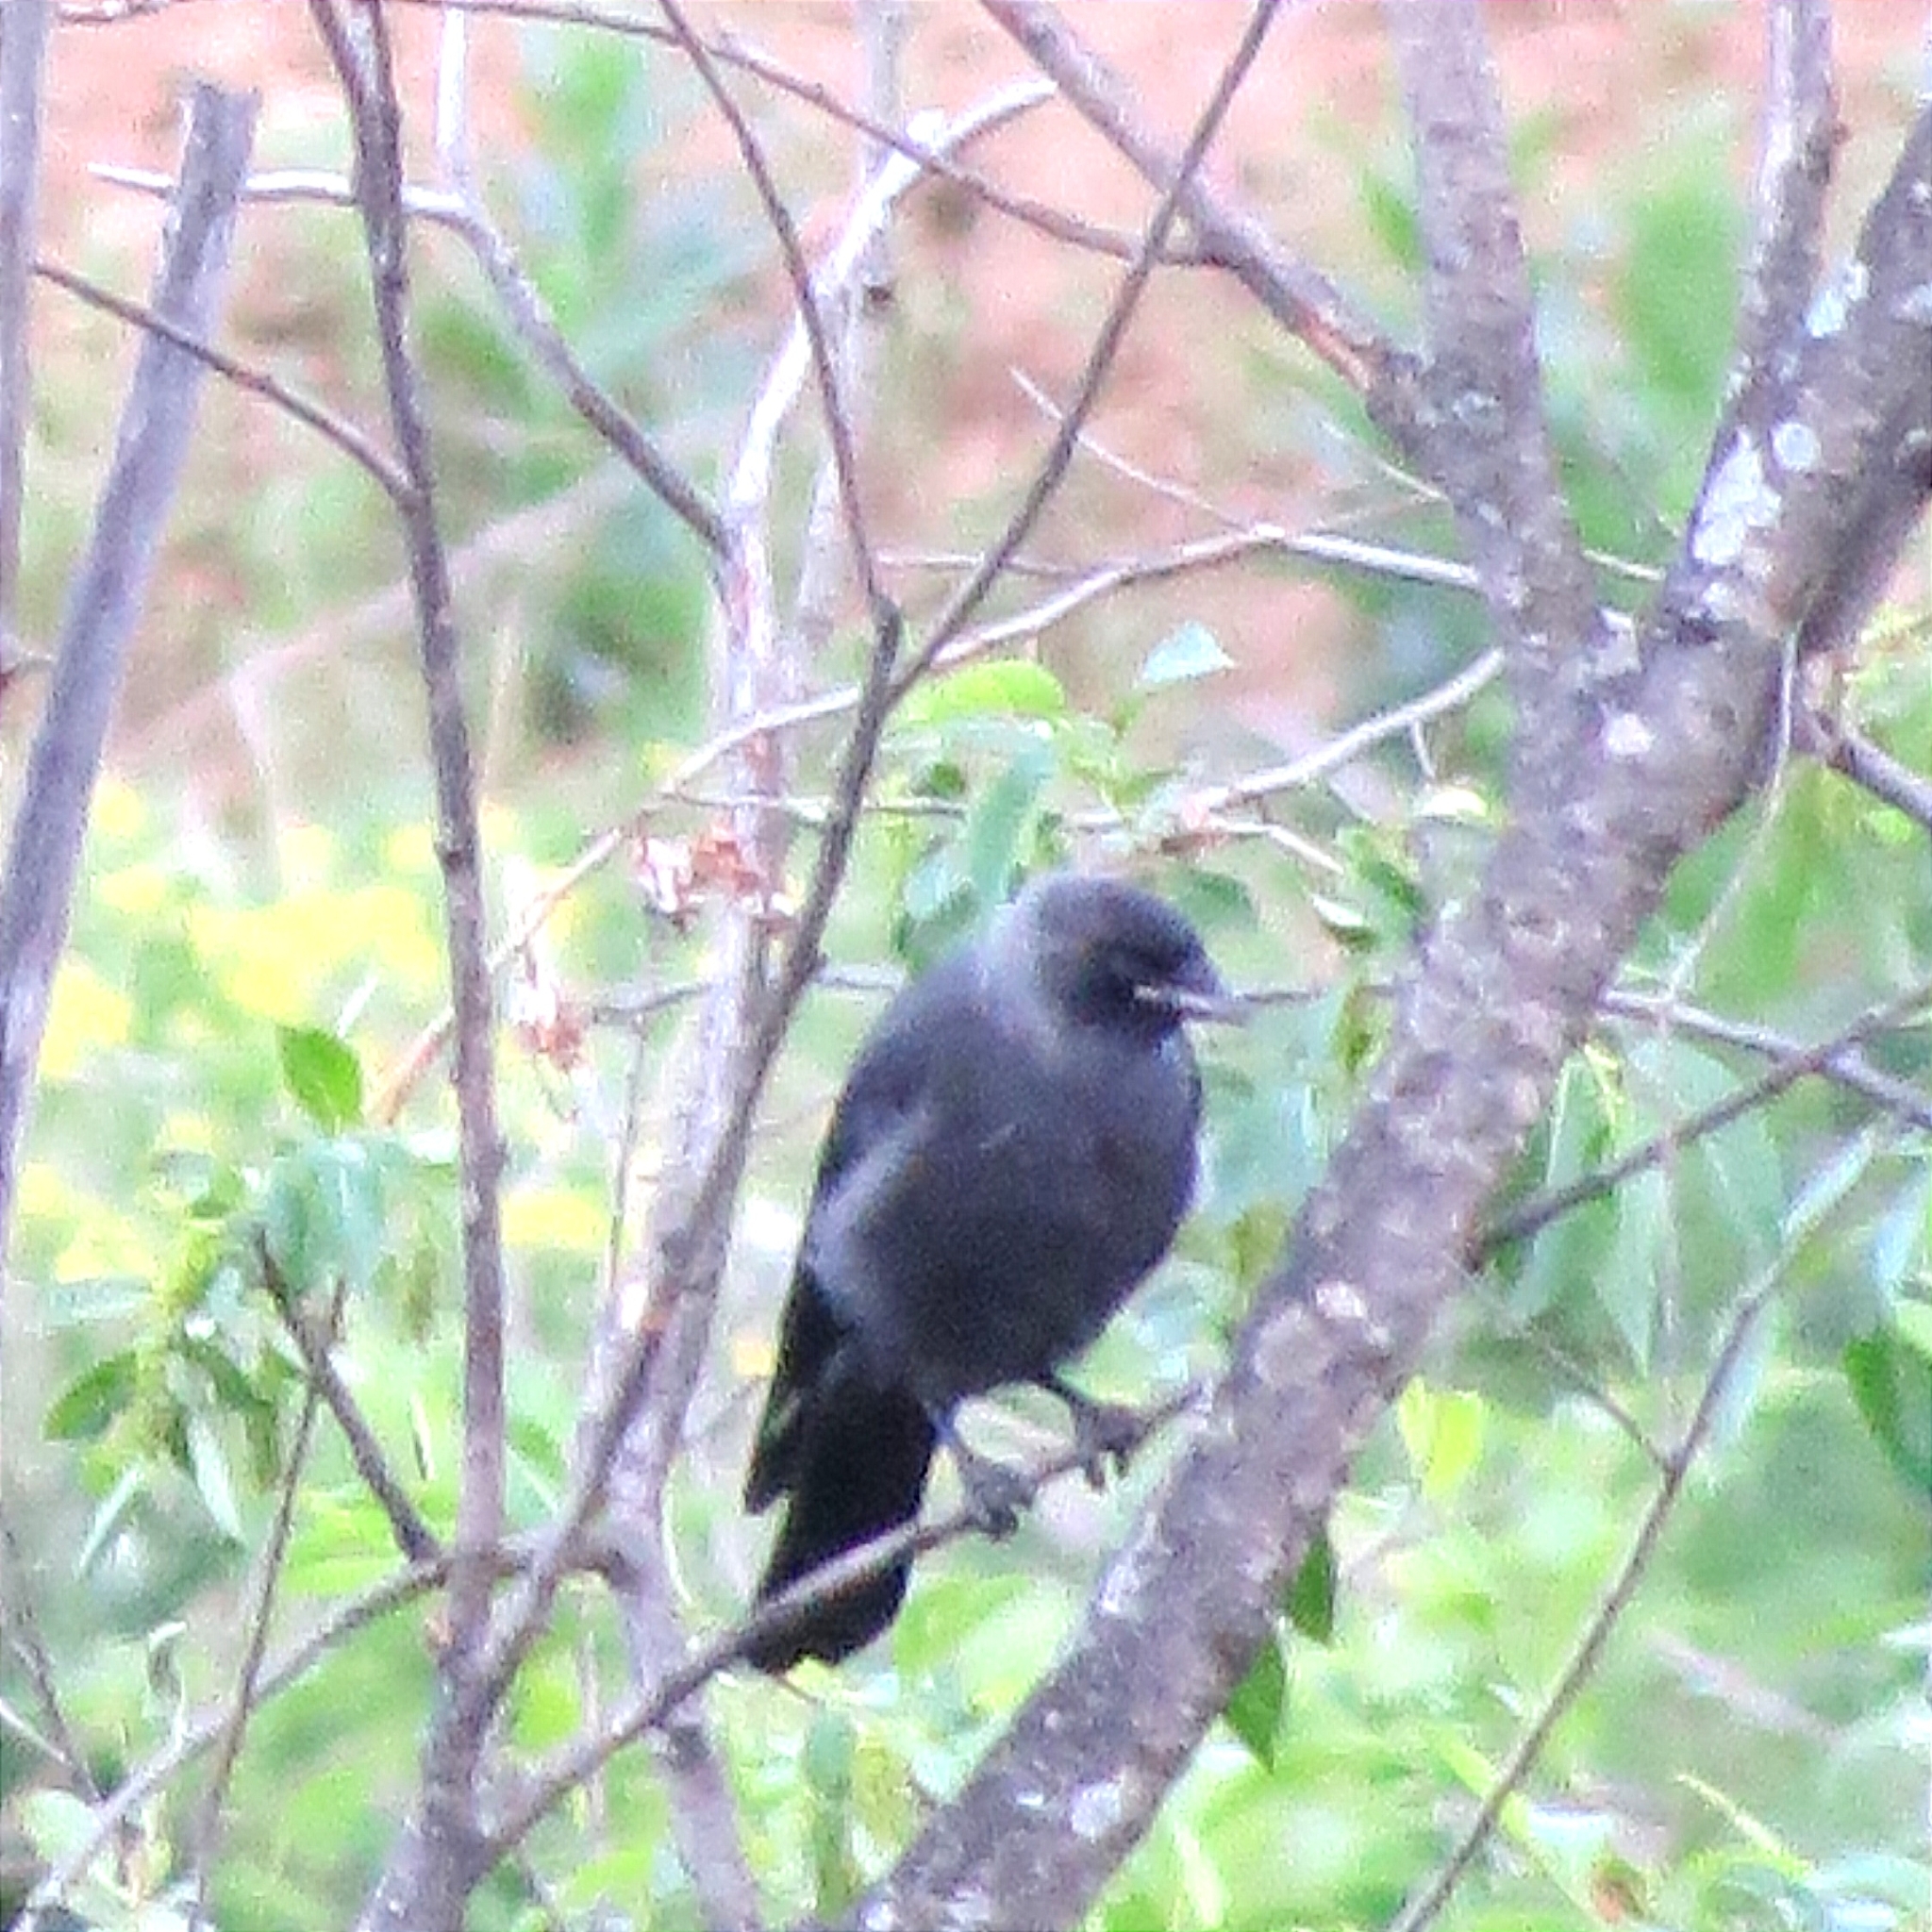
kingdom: Animalia
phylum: Chordata
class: Aves
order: Passeriformes
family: Corvidae
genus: Coloeus
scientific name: Coloeus monedula
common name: Western jackdaw
